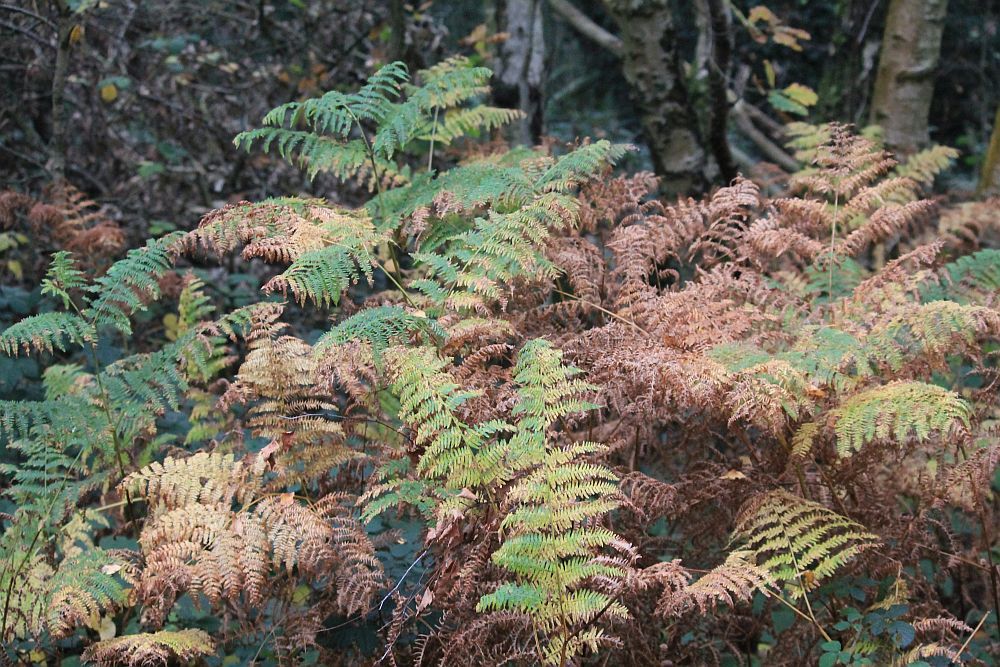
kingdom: Plantae
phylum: Tracheophyta
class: Polypodiopsida
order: Polypodiales
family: Dennstaedtiaceae
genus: Pteridium
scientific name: Pteridium aquilinum
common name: Bracken
